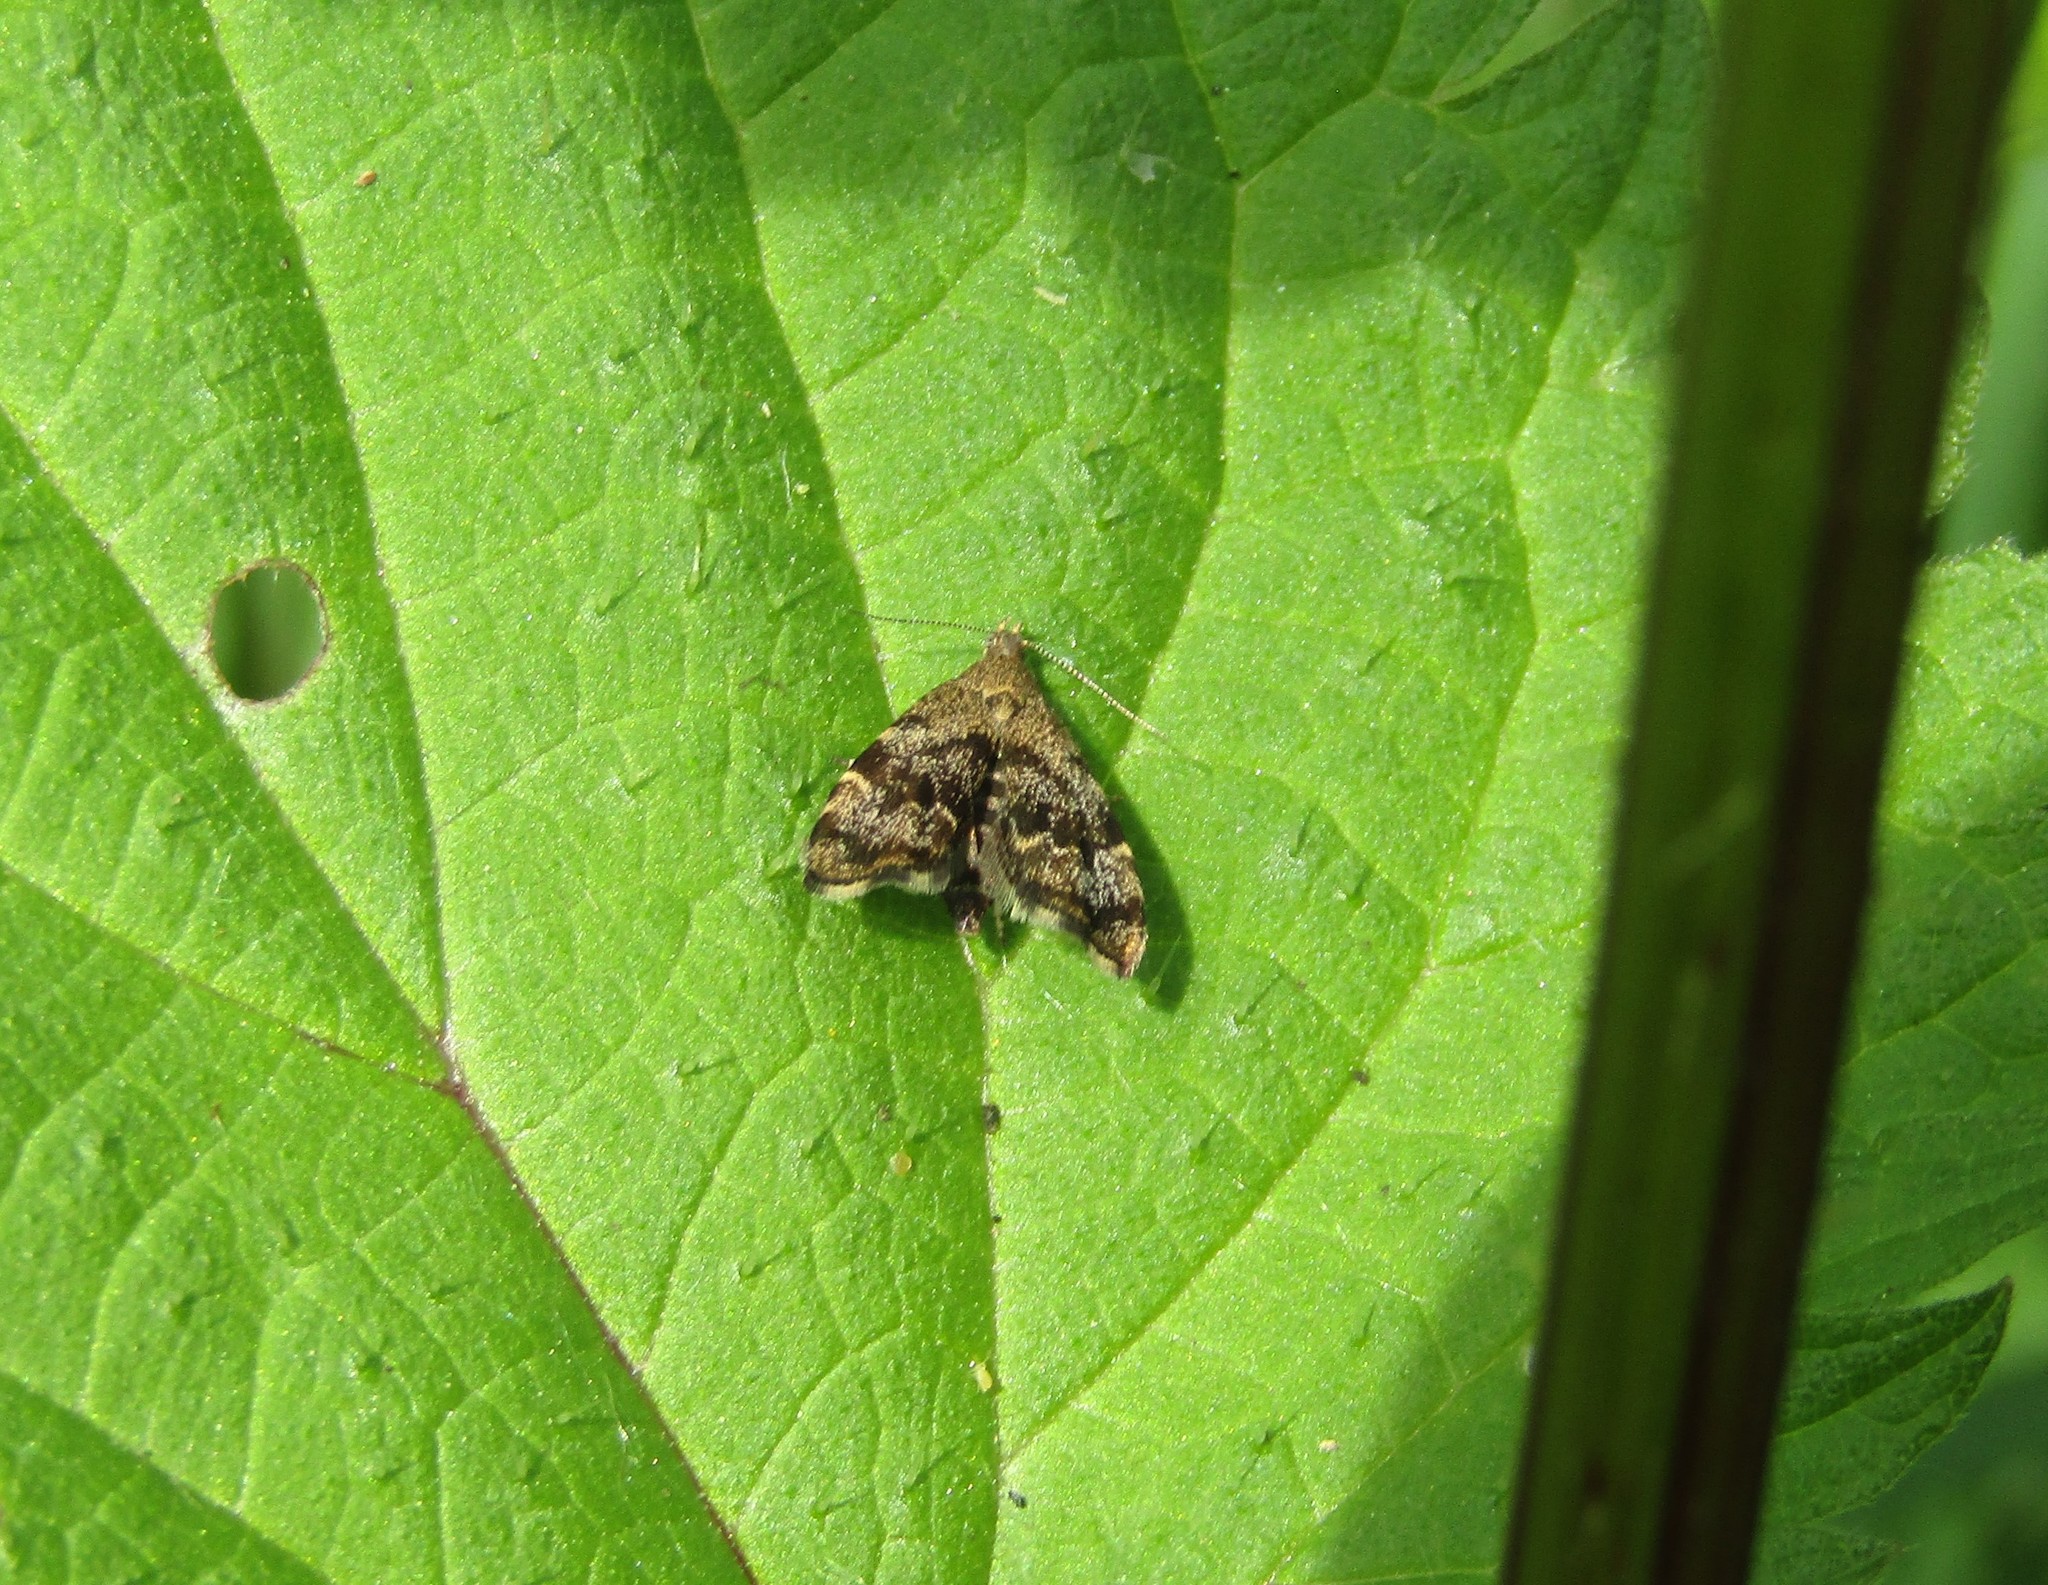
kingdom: Animalia
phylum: Arthropoda
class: Insecta
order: Lepidoptera
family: Choreutidae
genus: Anthophila
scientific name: Anthophila fabriciana
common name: Nettle-tap
